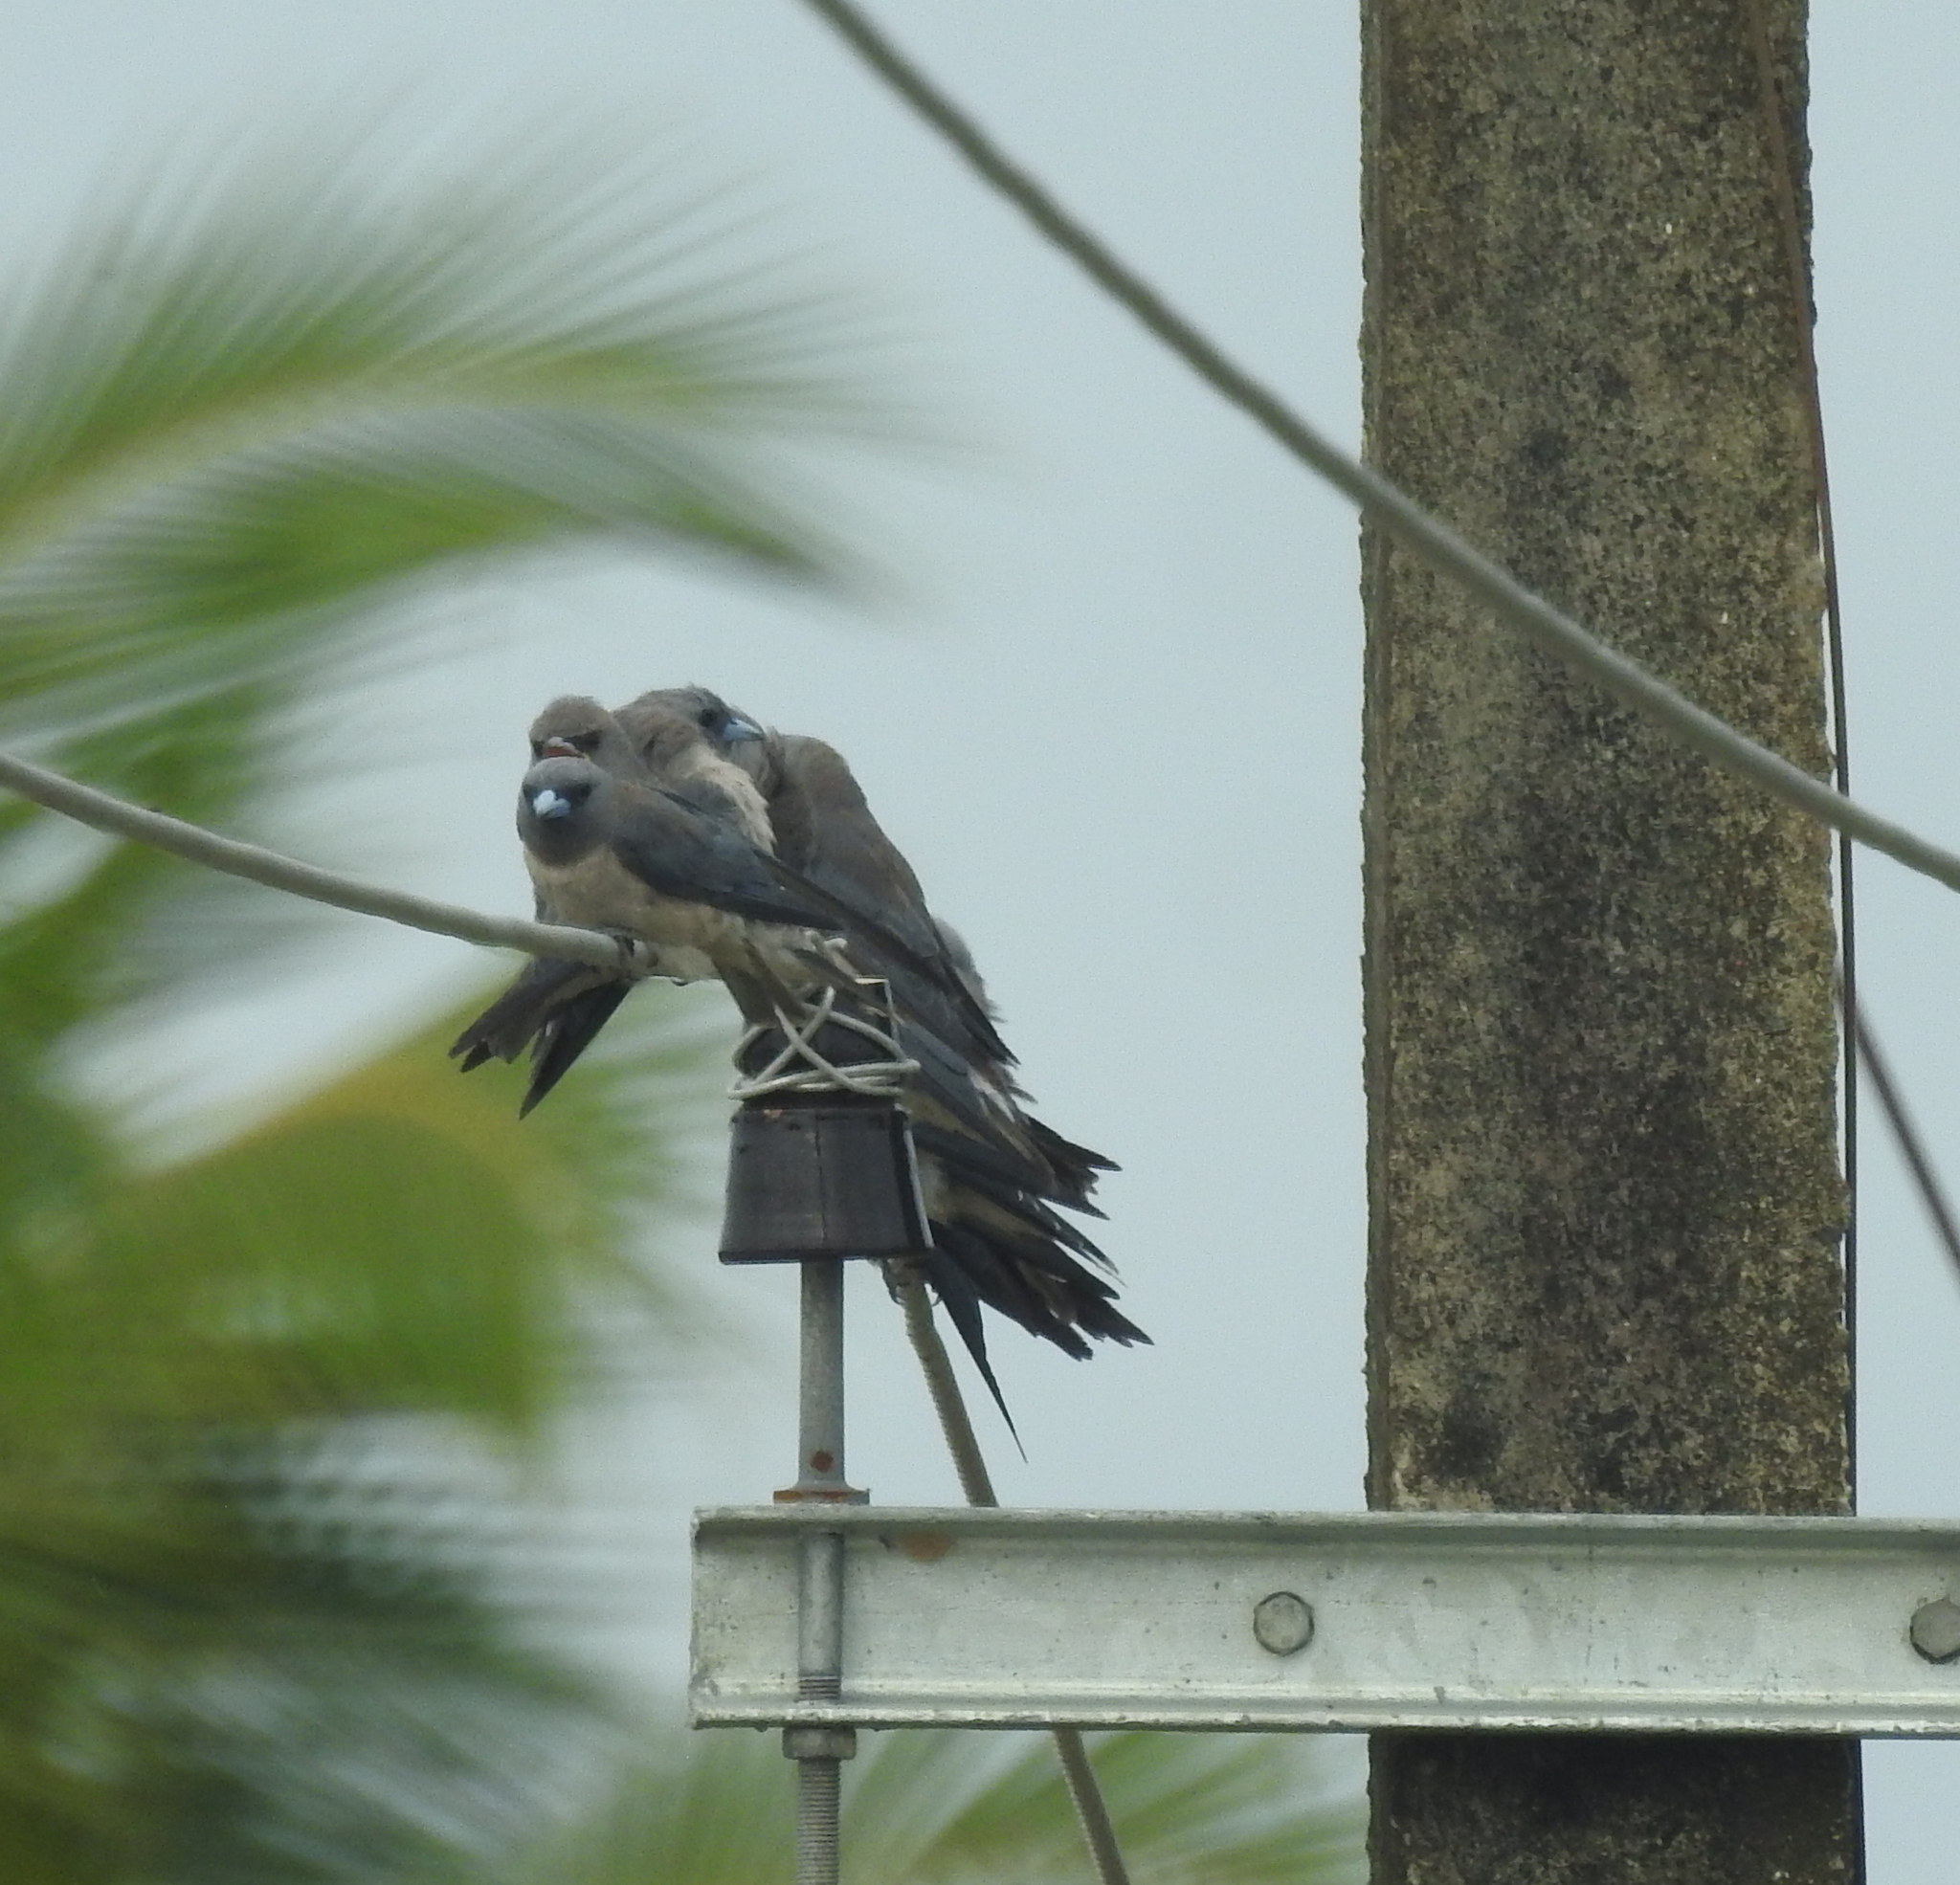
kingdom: Animalia
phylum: Chordata
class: Aves
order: Passeriformes
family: Artamidae
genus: Artamus
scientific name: Artamus fuscus
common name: Ashy woodswallow
